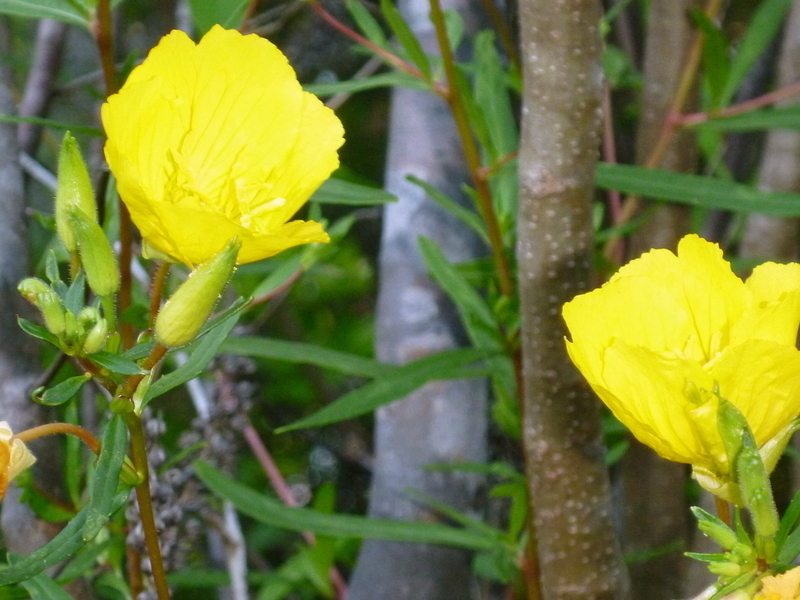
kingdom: Plantae
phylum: Tracheophyta
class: Magnoliopsida
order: Myrtales
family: Onagraceae
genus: Oenothera
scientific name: Oenothera fruticosa
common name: Southern sundrops
